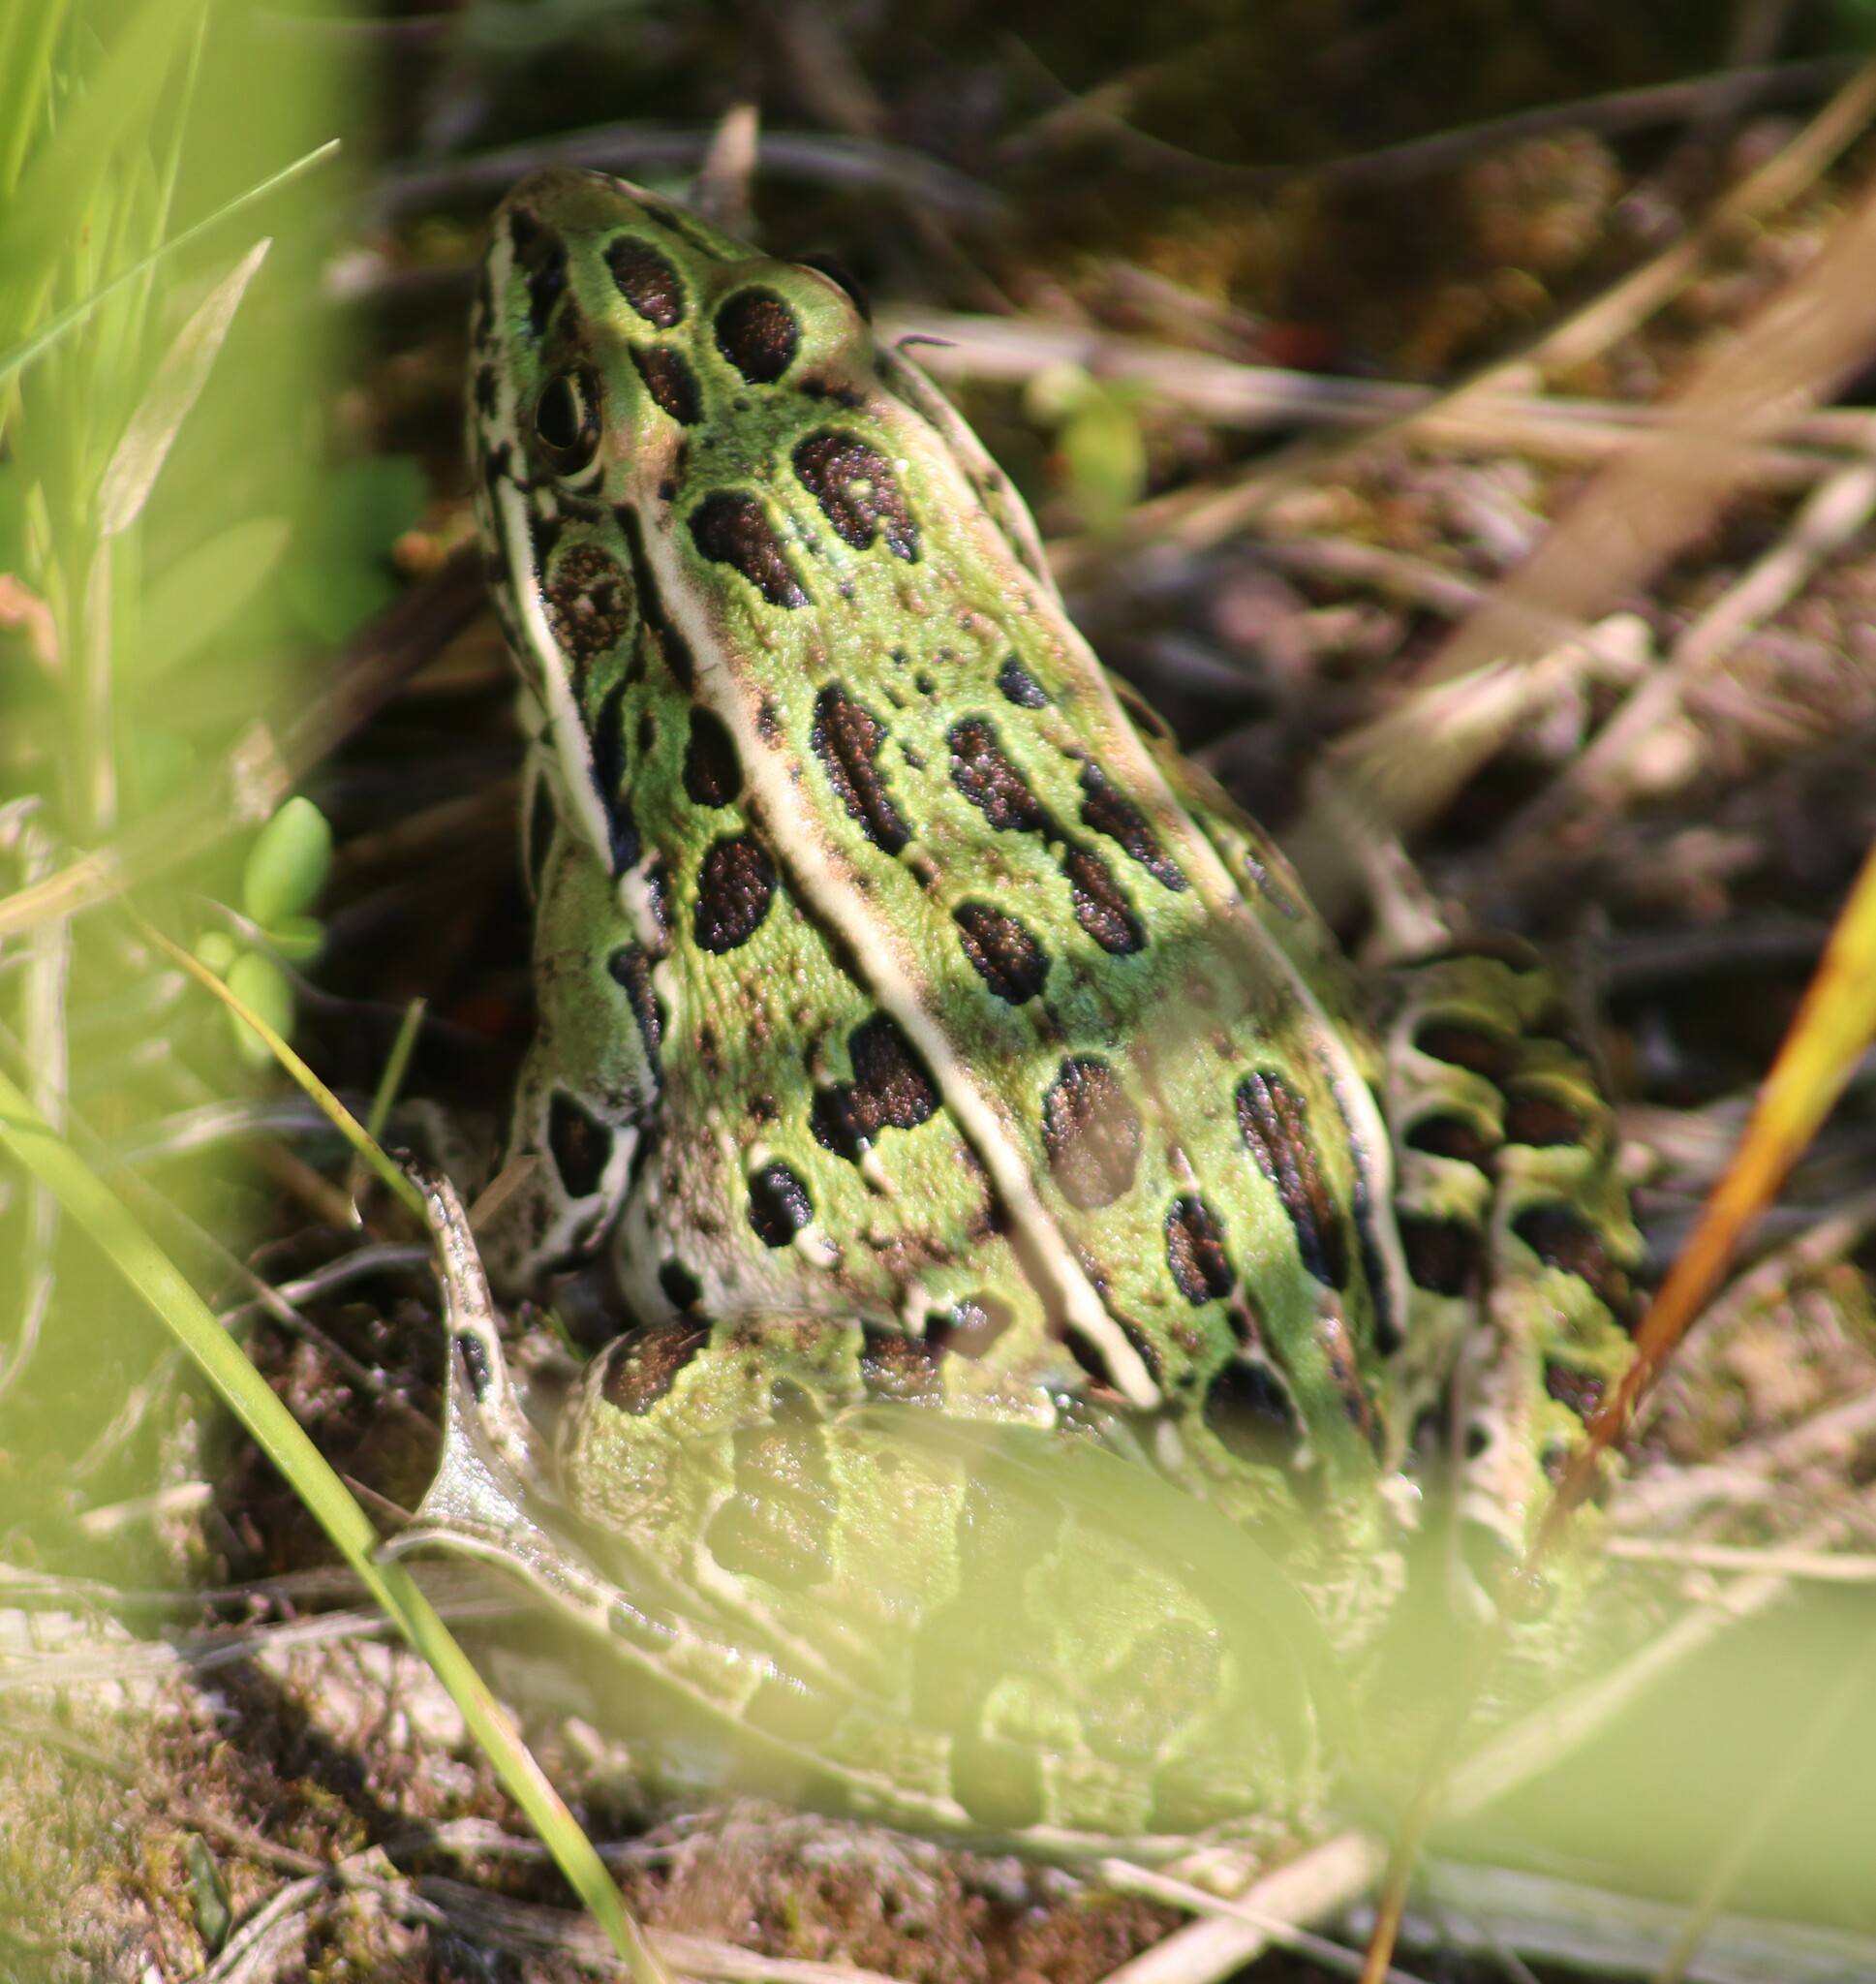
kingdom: Animalia
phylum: Chordata
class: Amphibia
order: Anura
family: Ranidae
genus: Lithobates
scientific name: Lithobates pipiens
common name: Northern leopard frog
